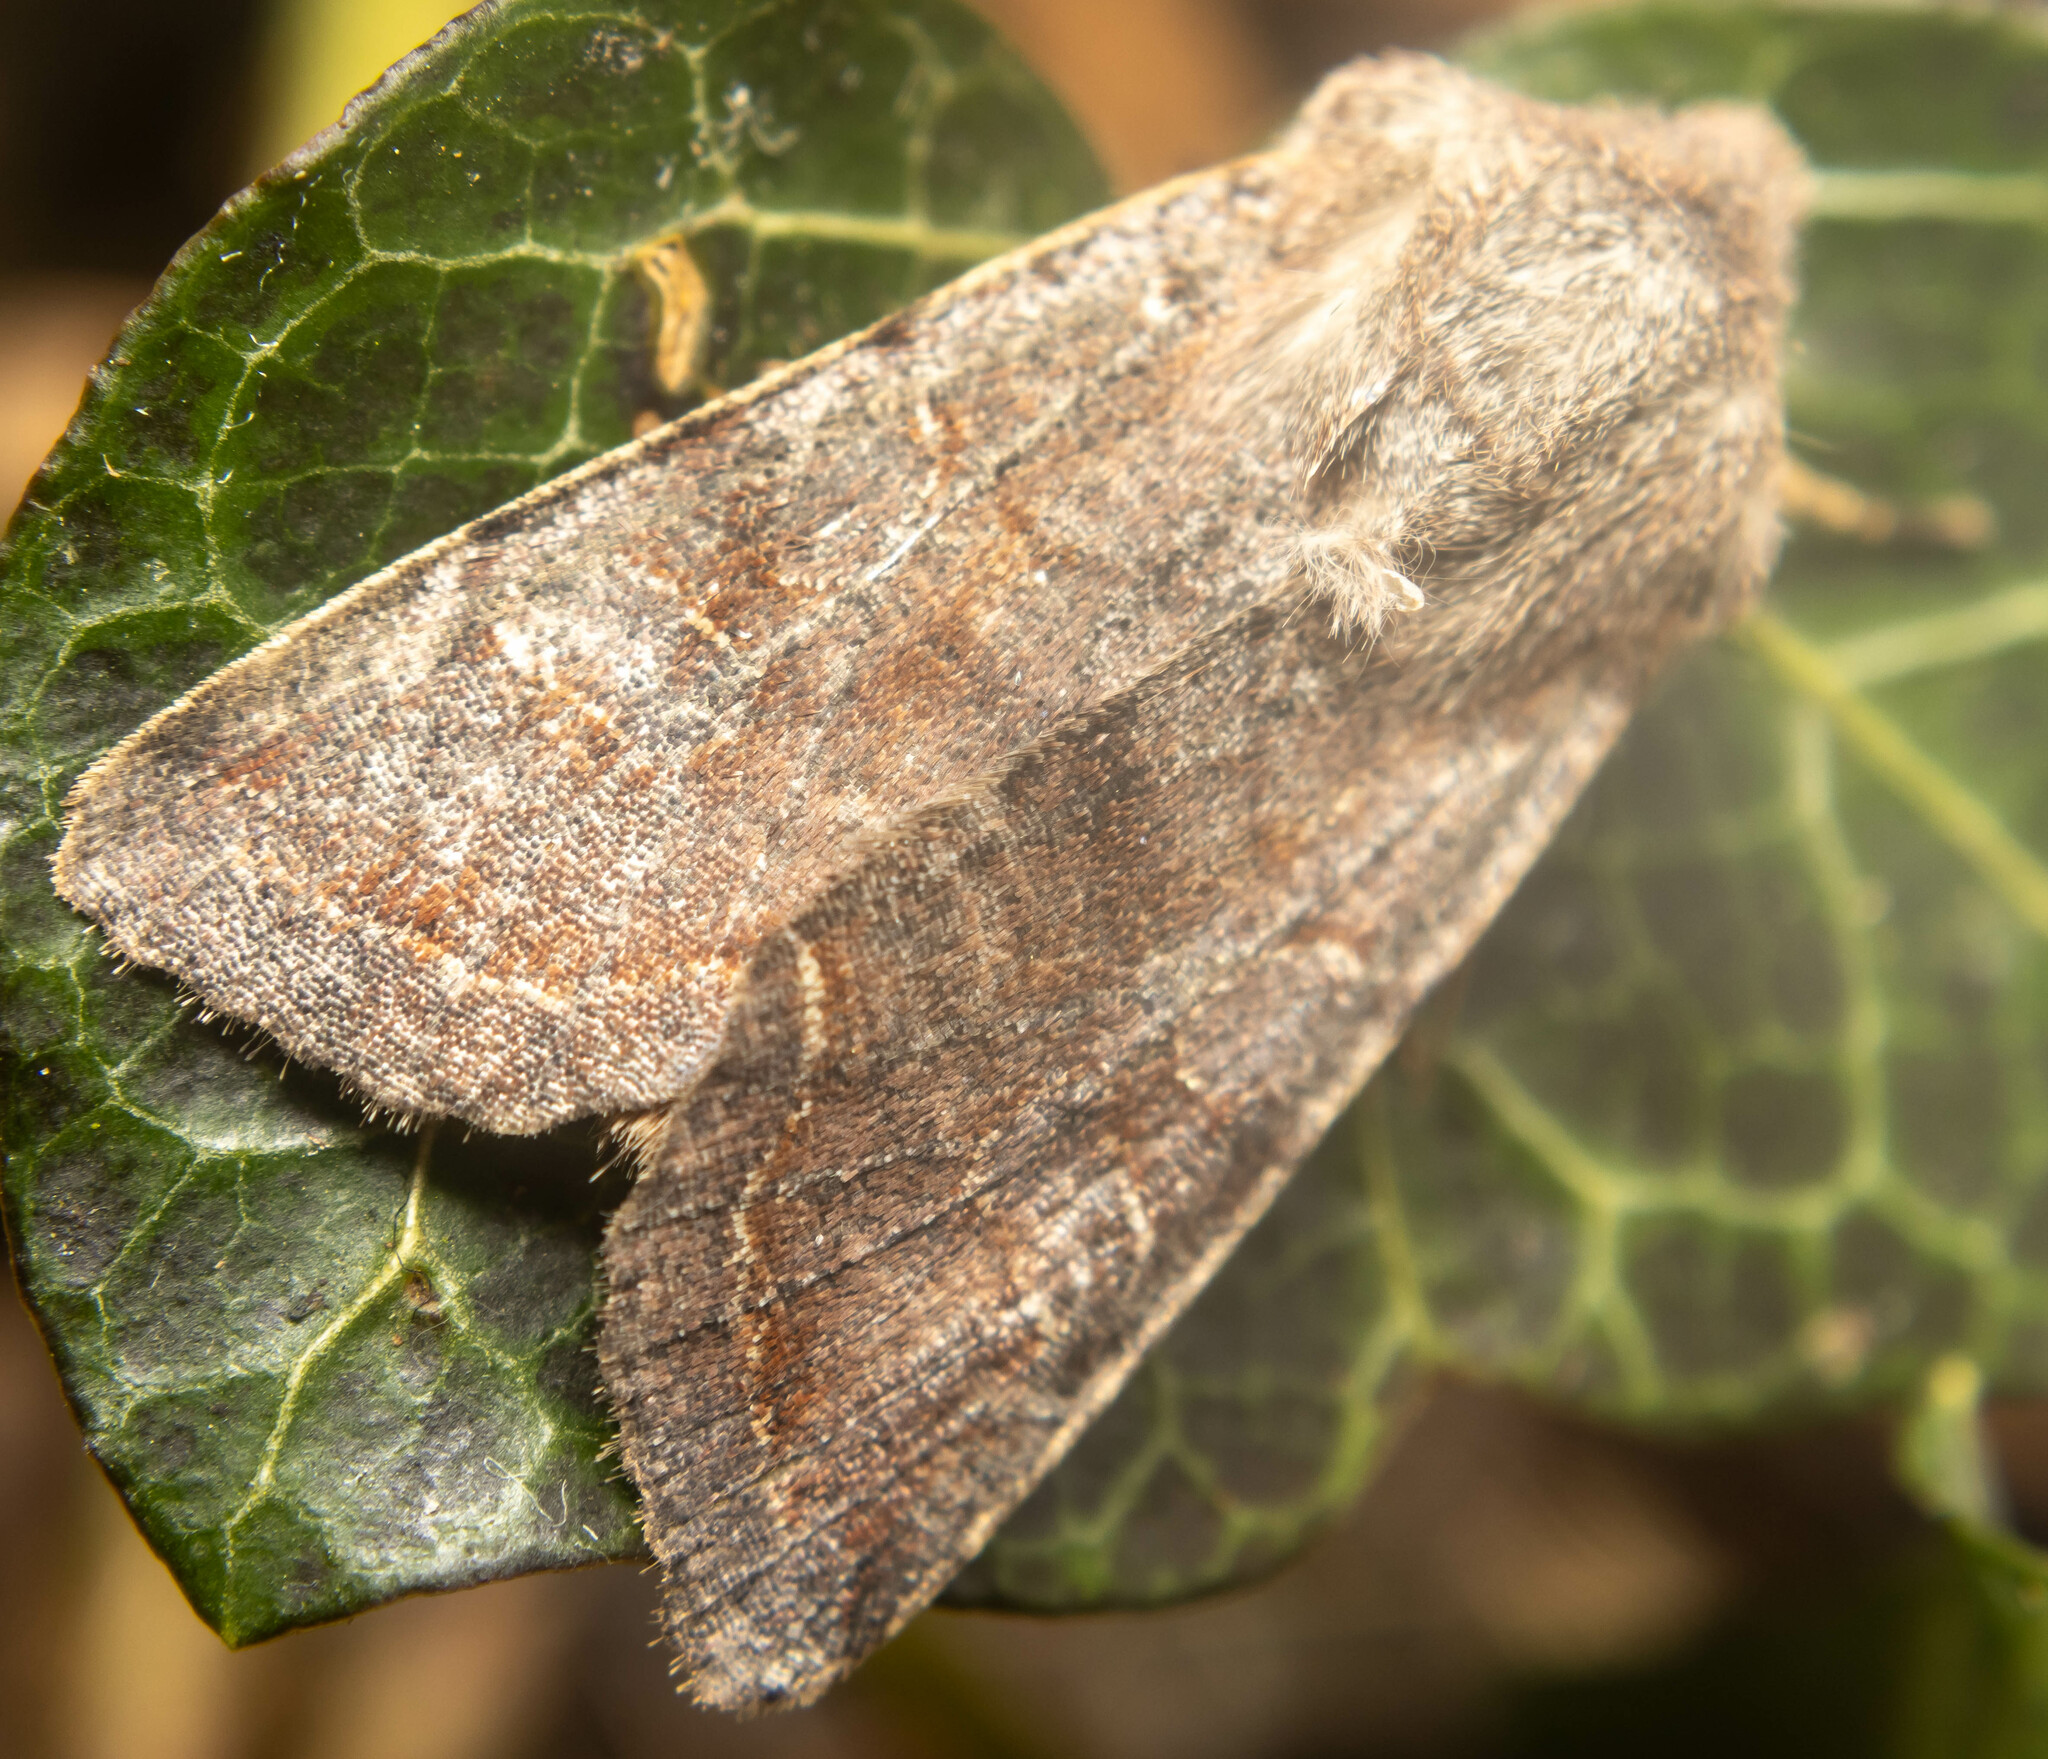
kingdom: Animalia
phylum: Arthropoda
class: Insecta
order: Lepidoptera
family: Noctuidae
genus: Orthosia
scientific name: Orthosia incerta
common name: Clouded drab
